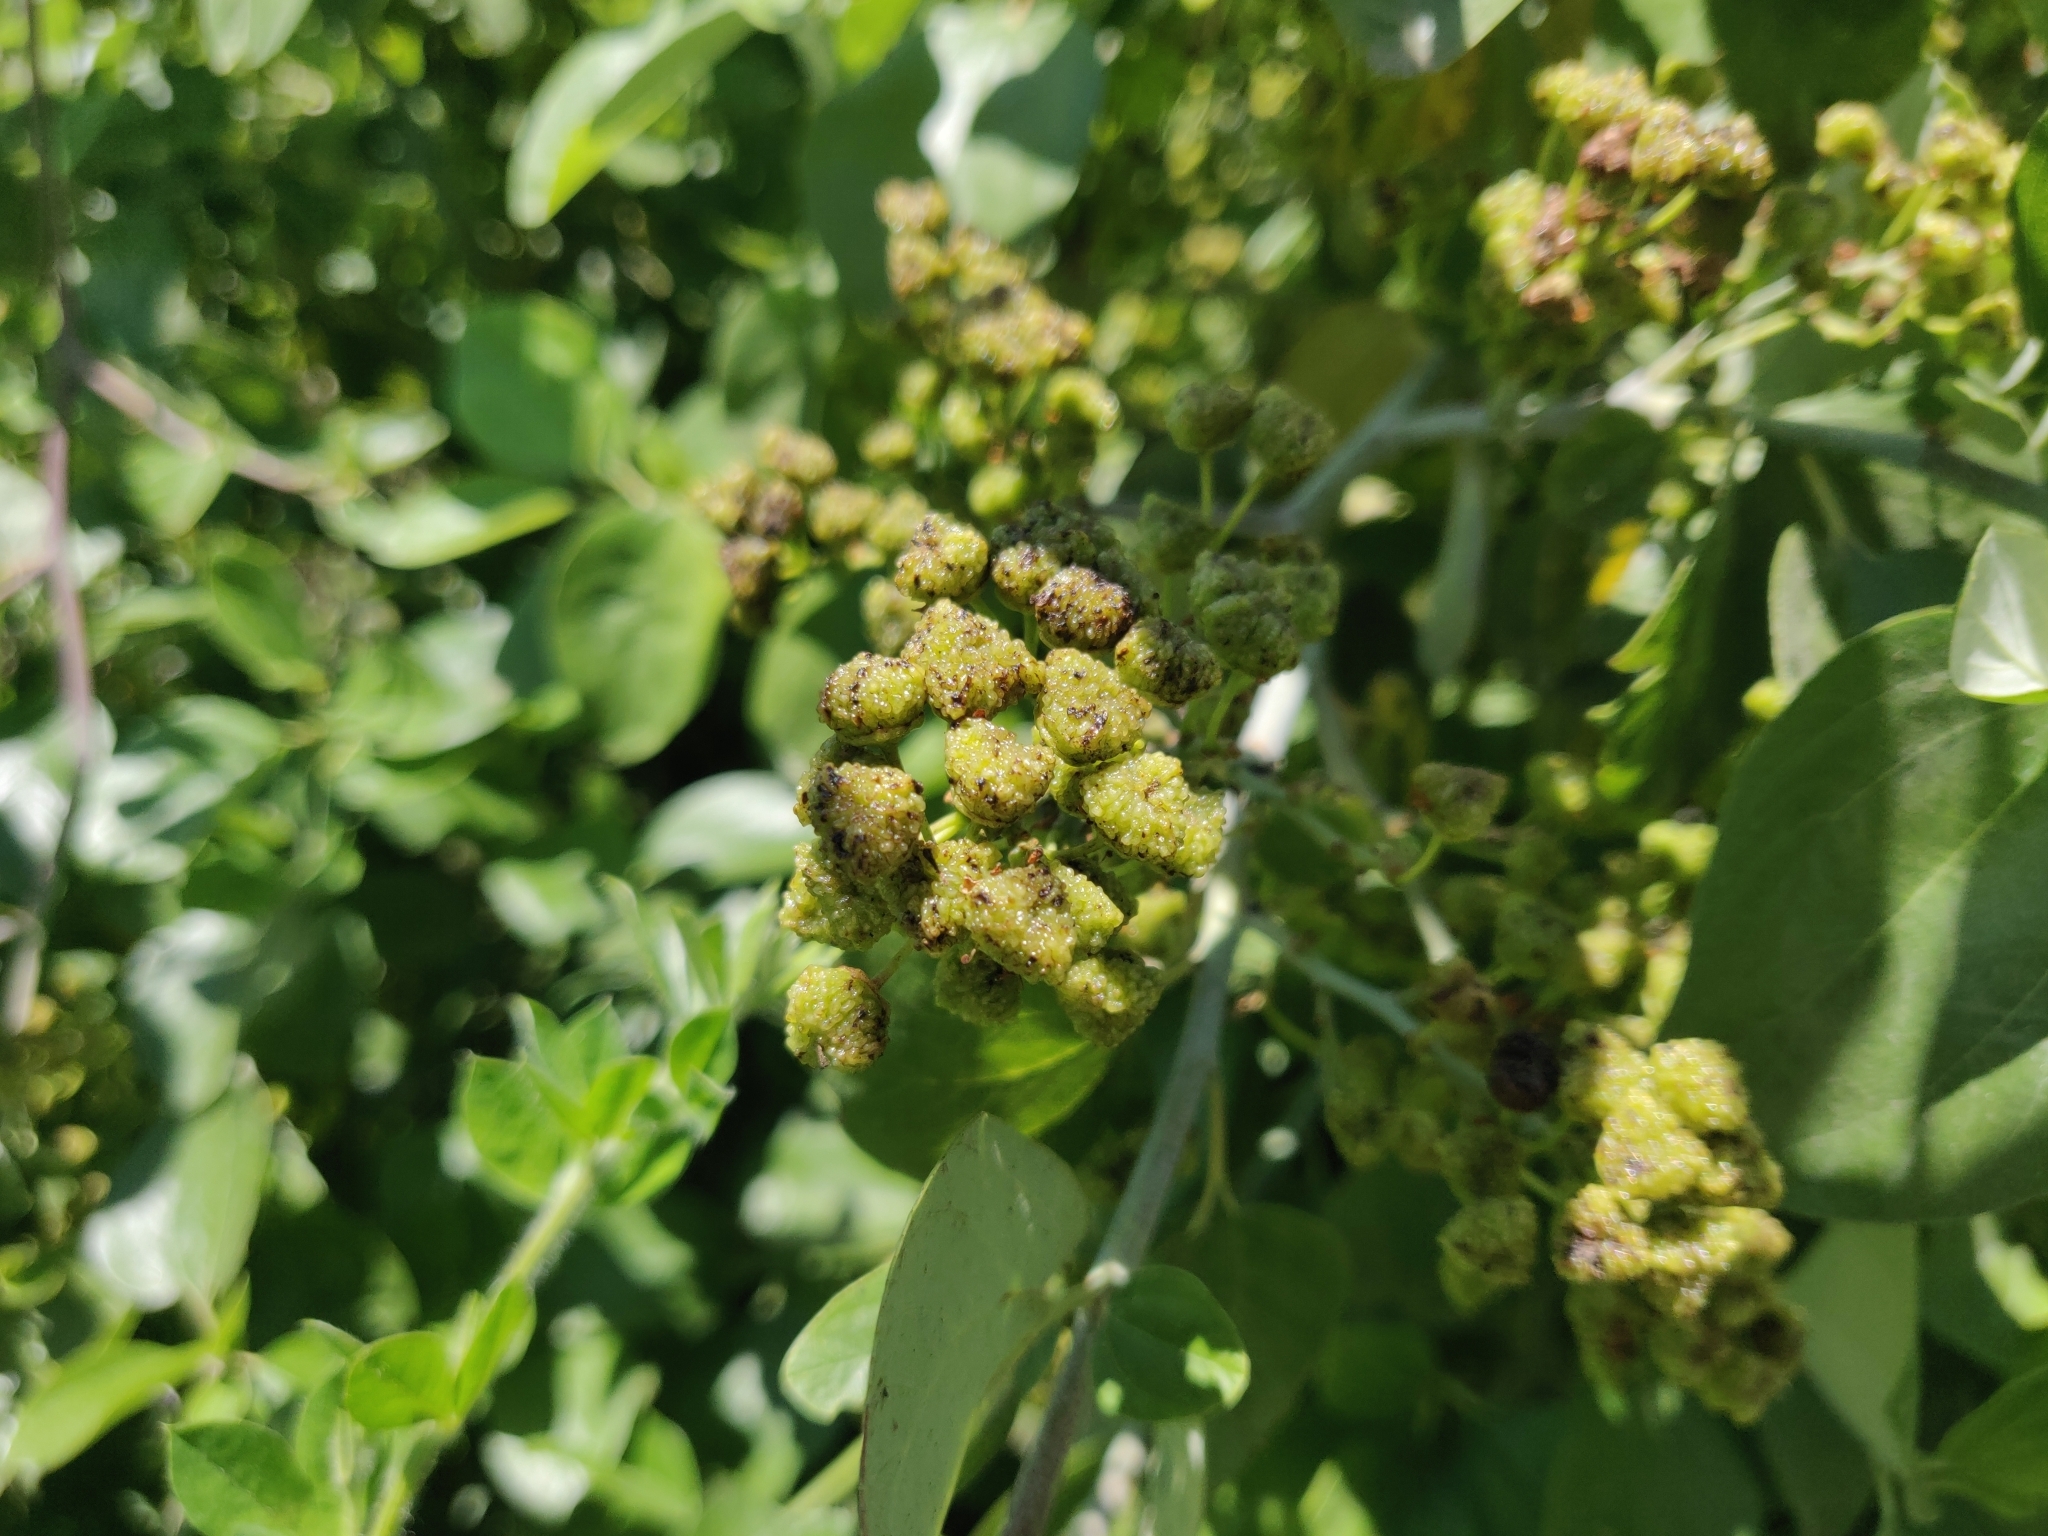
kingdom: Plantae
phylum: Tracheophyta
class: Magnoliopsida
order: Rosales
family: Rhamnaceae
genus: Ceanothus
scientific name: Ceanothus incanus
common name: Coast whitethorn
